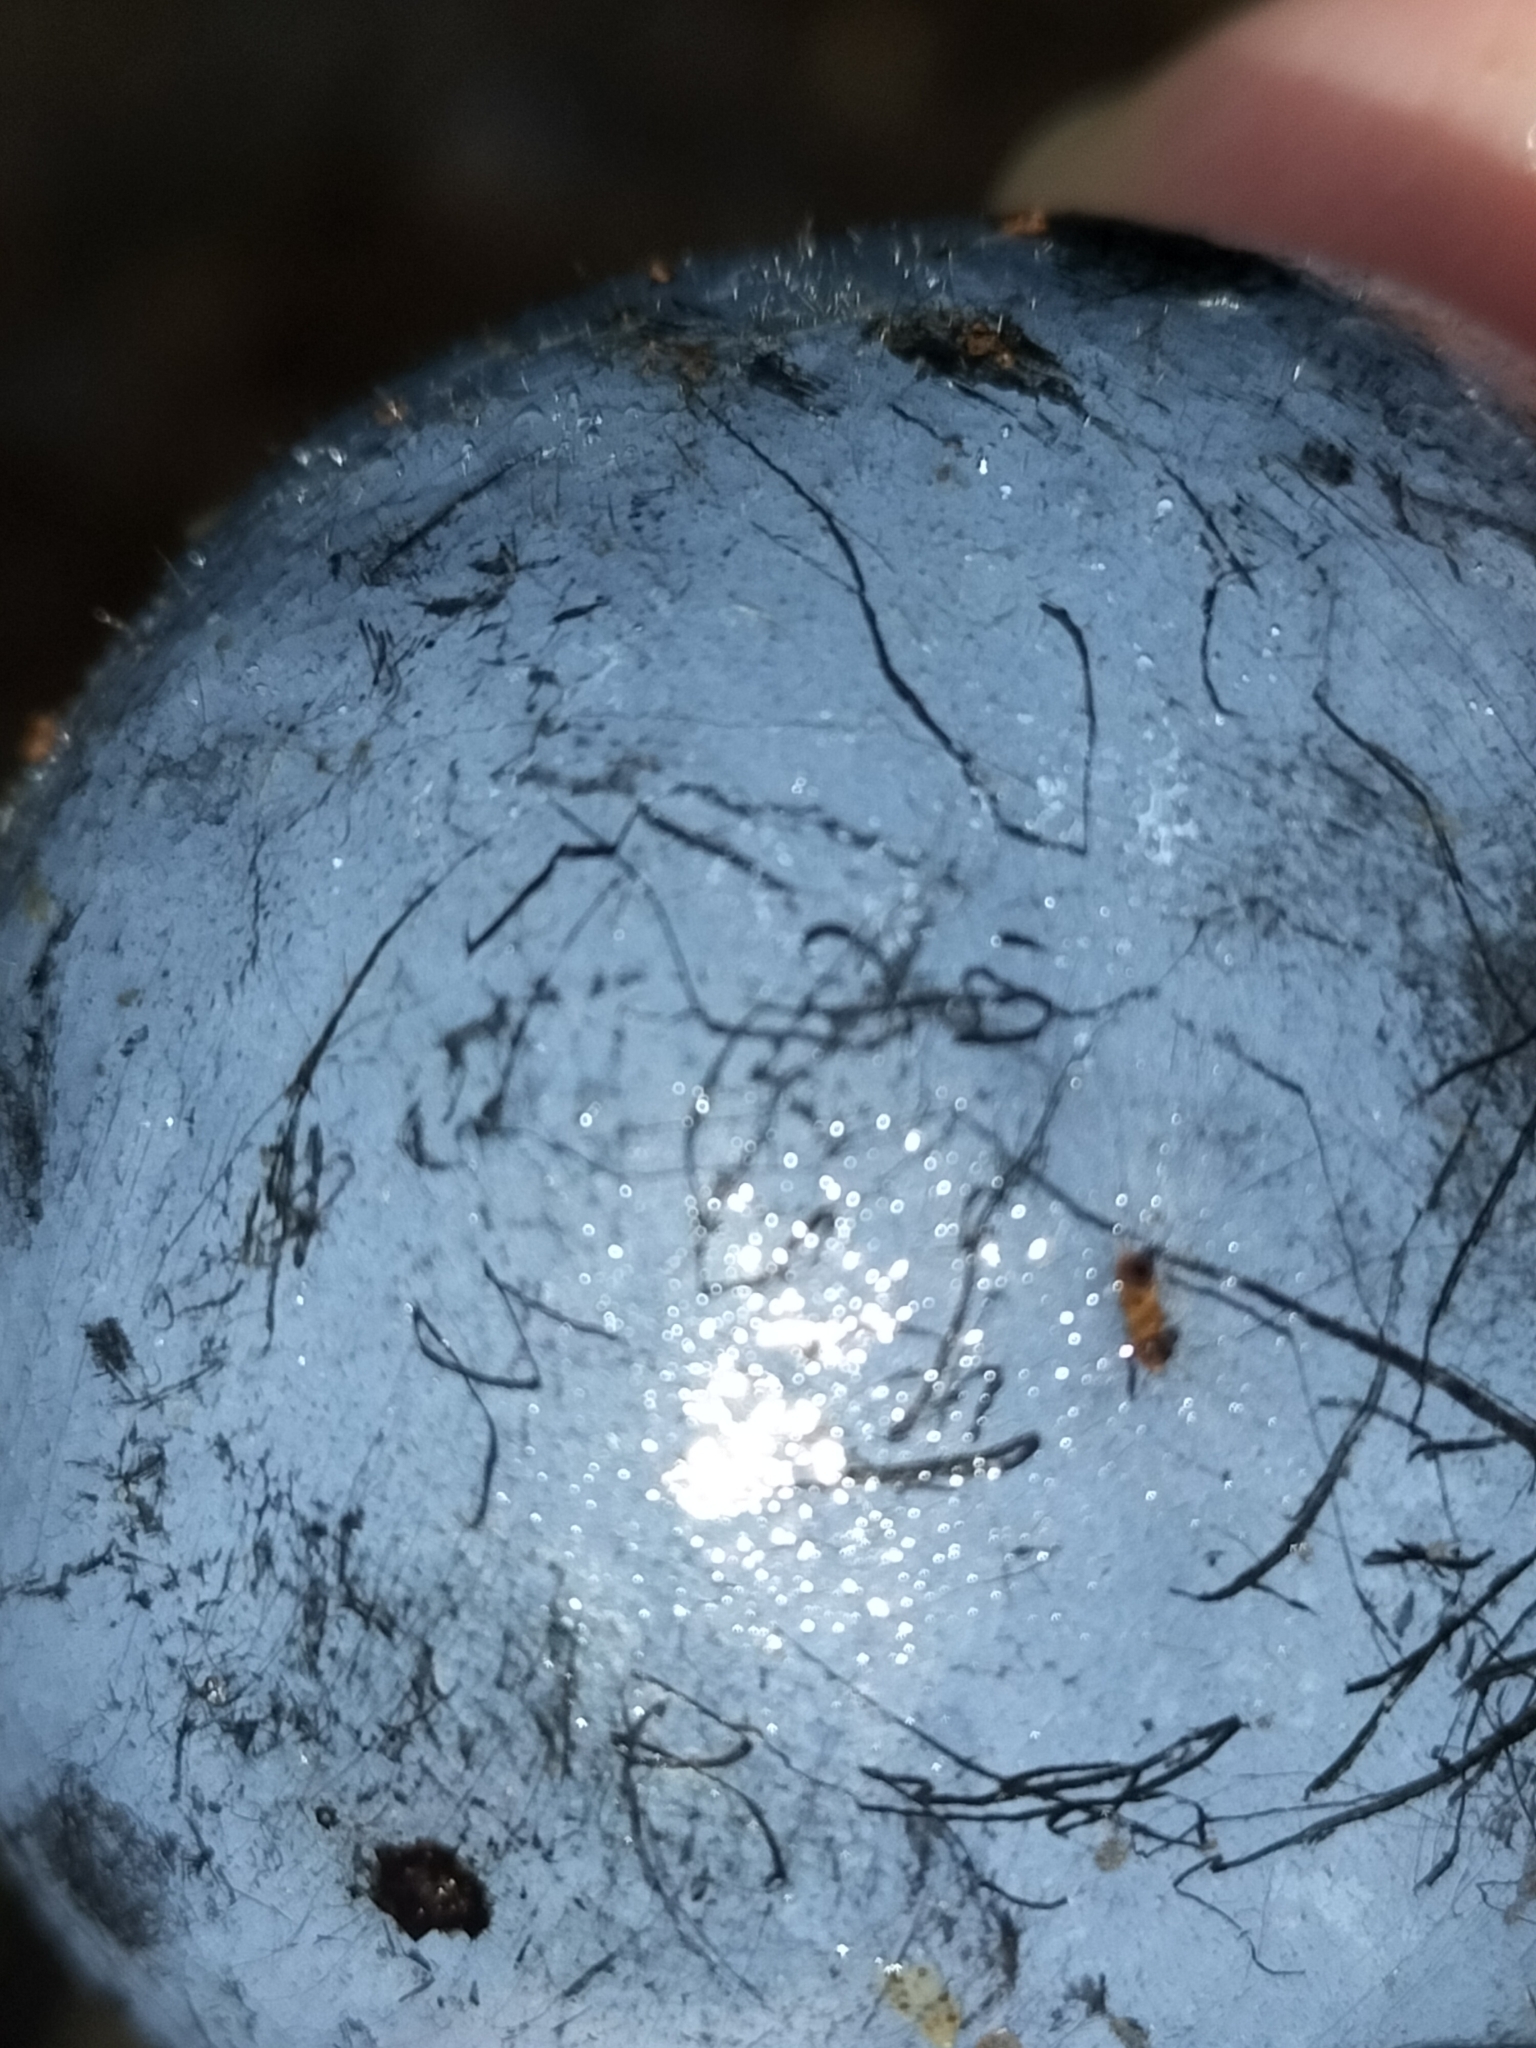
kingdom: Plantae
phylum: Tracheophyta
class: Magnoliopsida
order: Oxalidales
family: Cunoniaceae
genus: Davidsonia
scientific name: Davidsonia pruriens
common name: Do-rog
